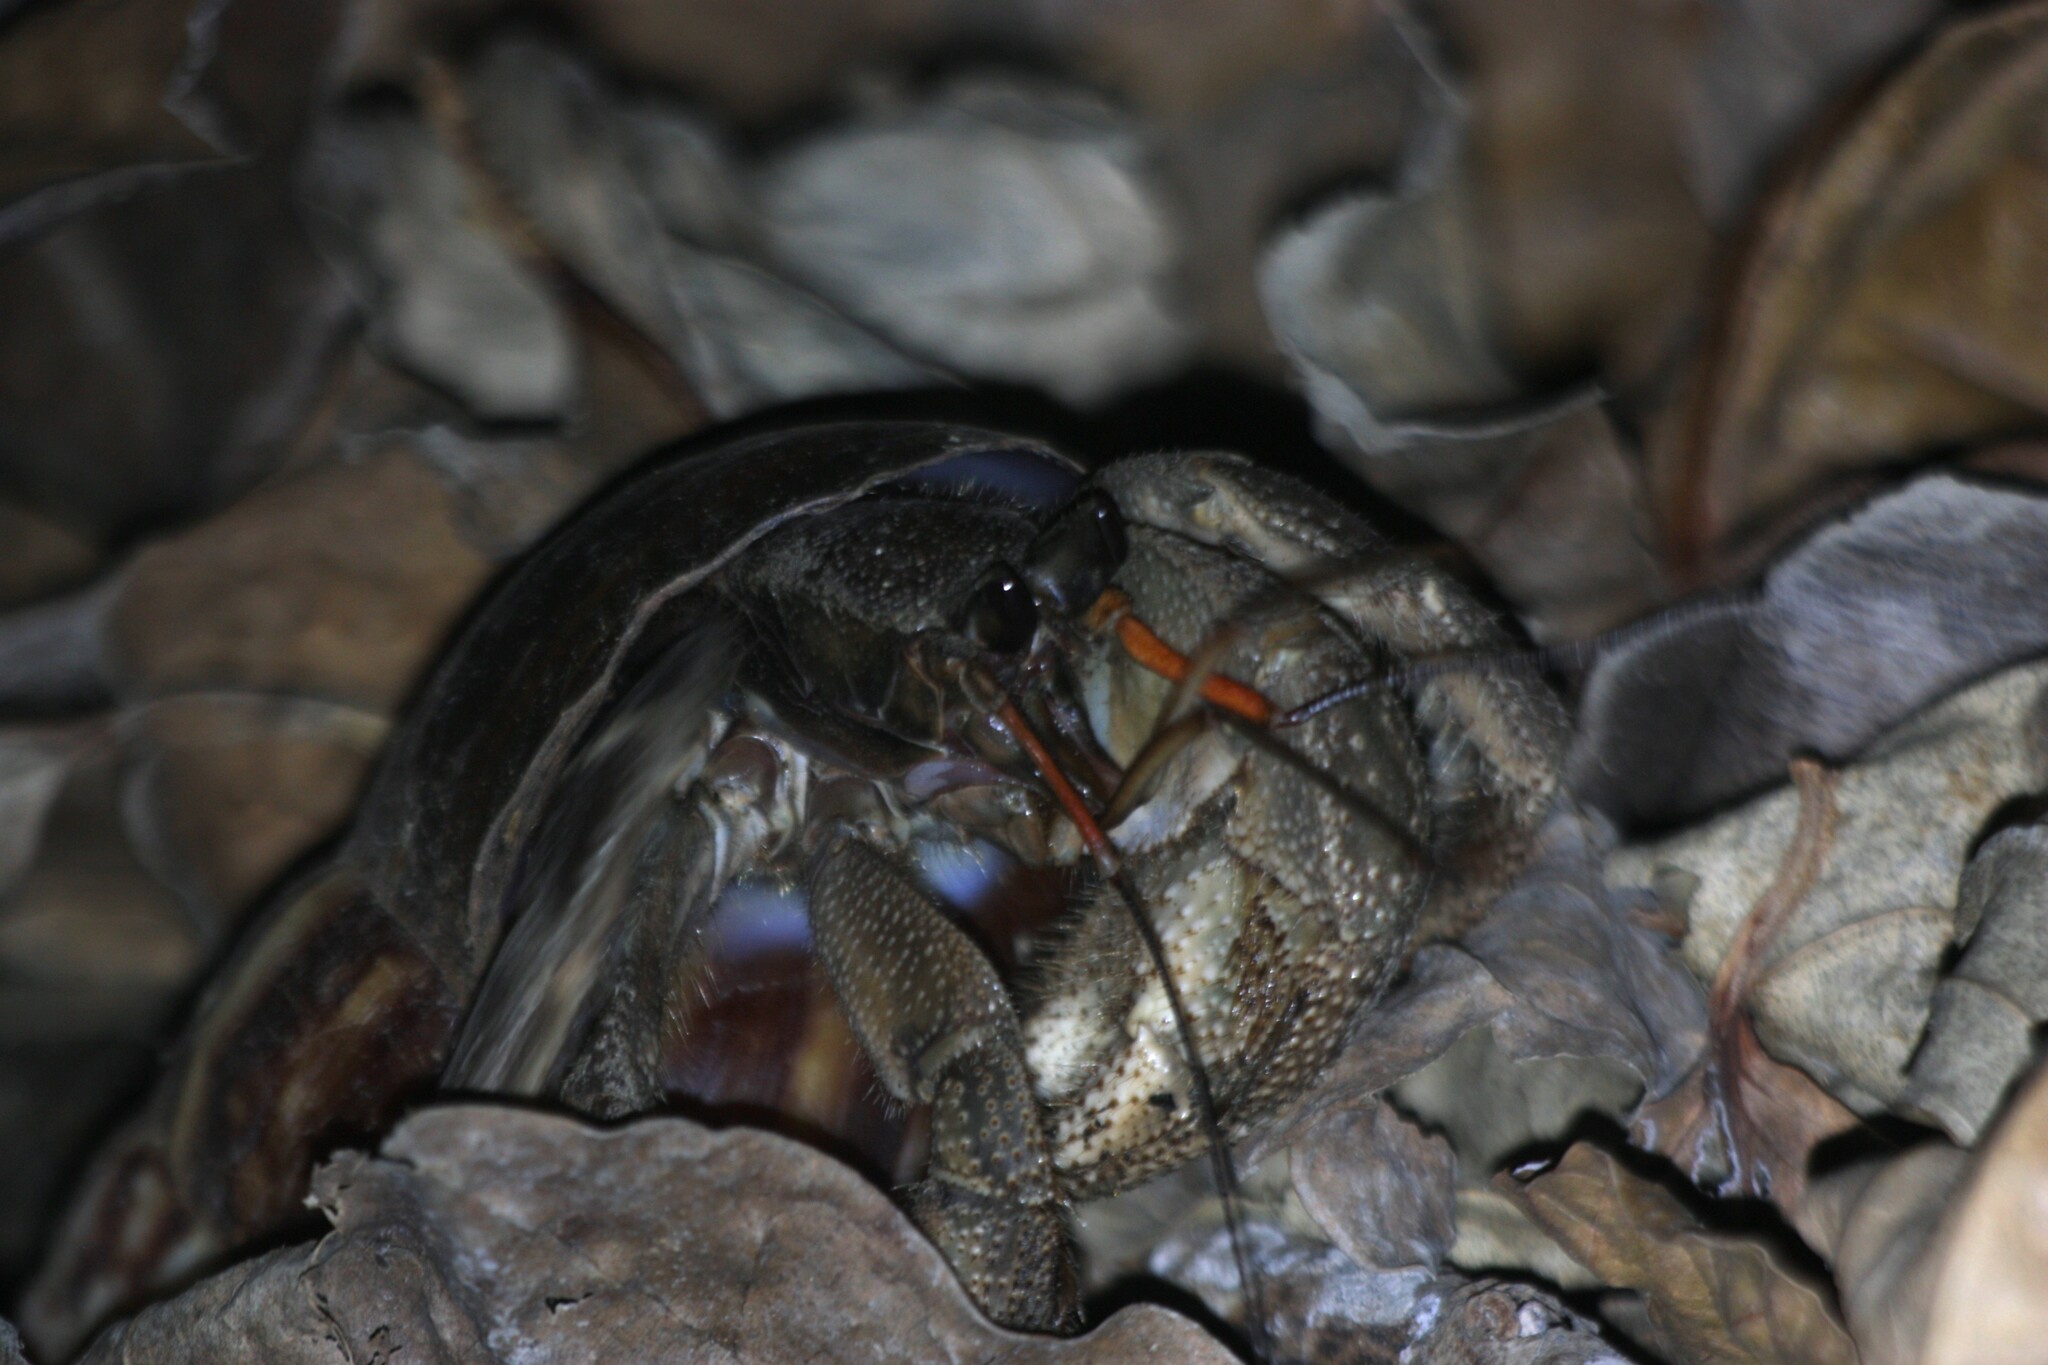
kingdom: Animalia
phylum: Arthropoda
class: Malacostraca
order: Decapoda
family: Coenobitidae
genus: Coenobita
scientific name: Coenobita cavipes
